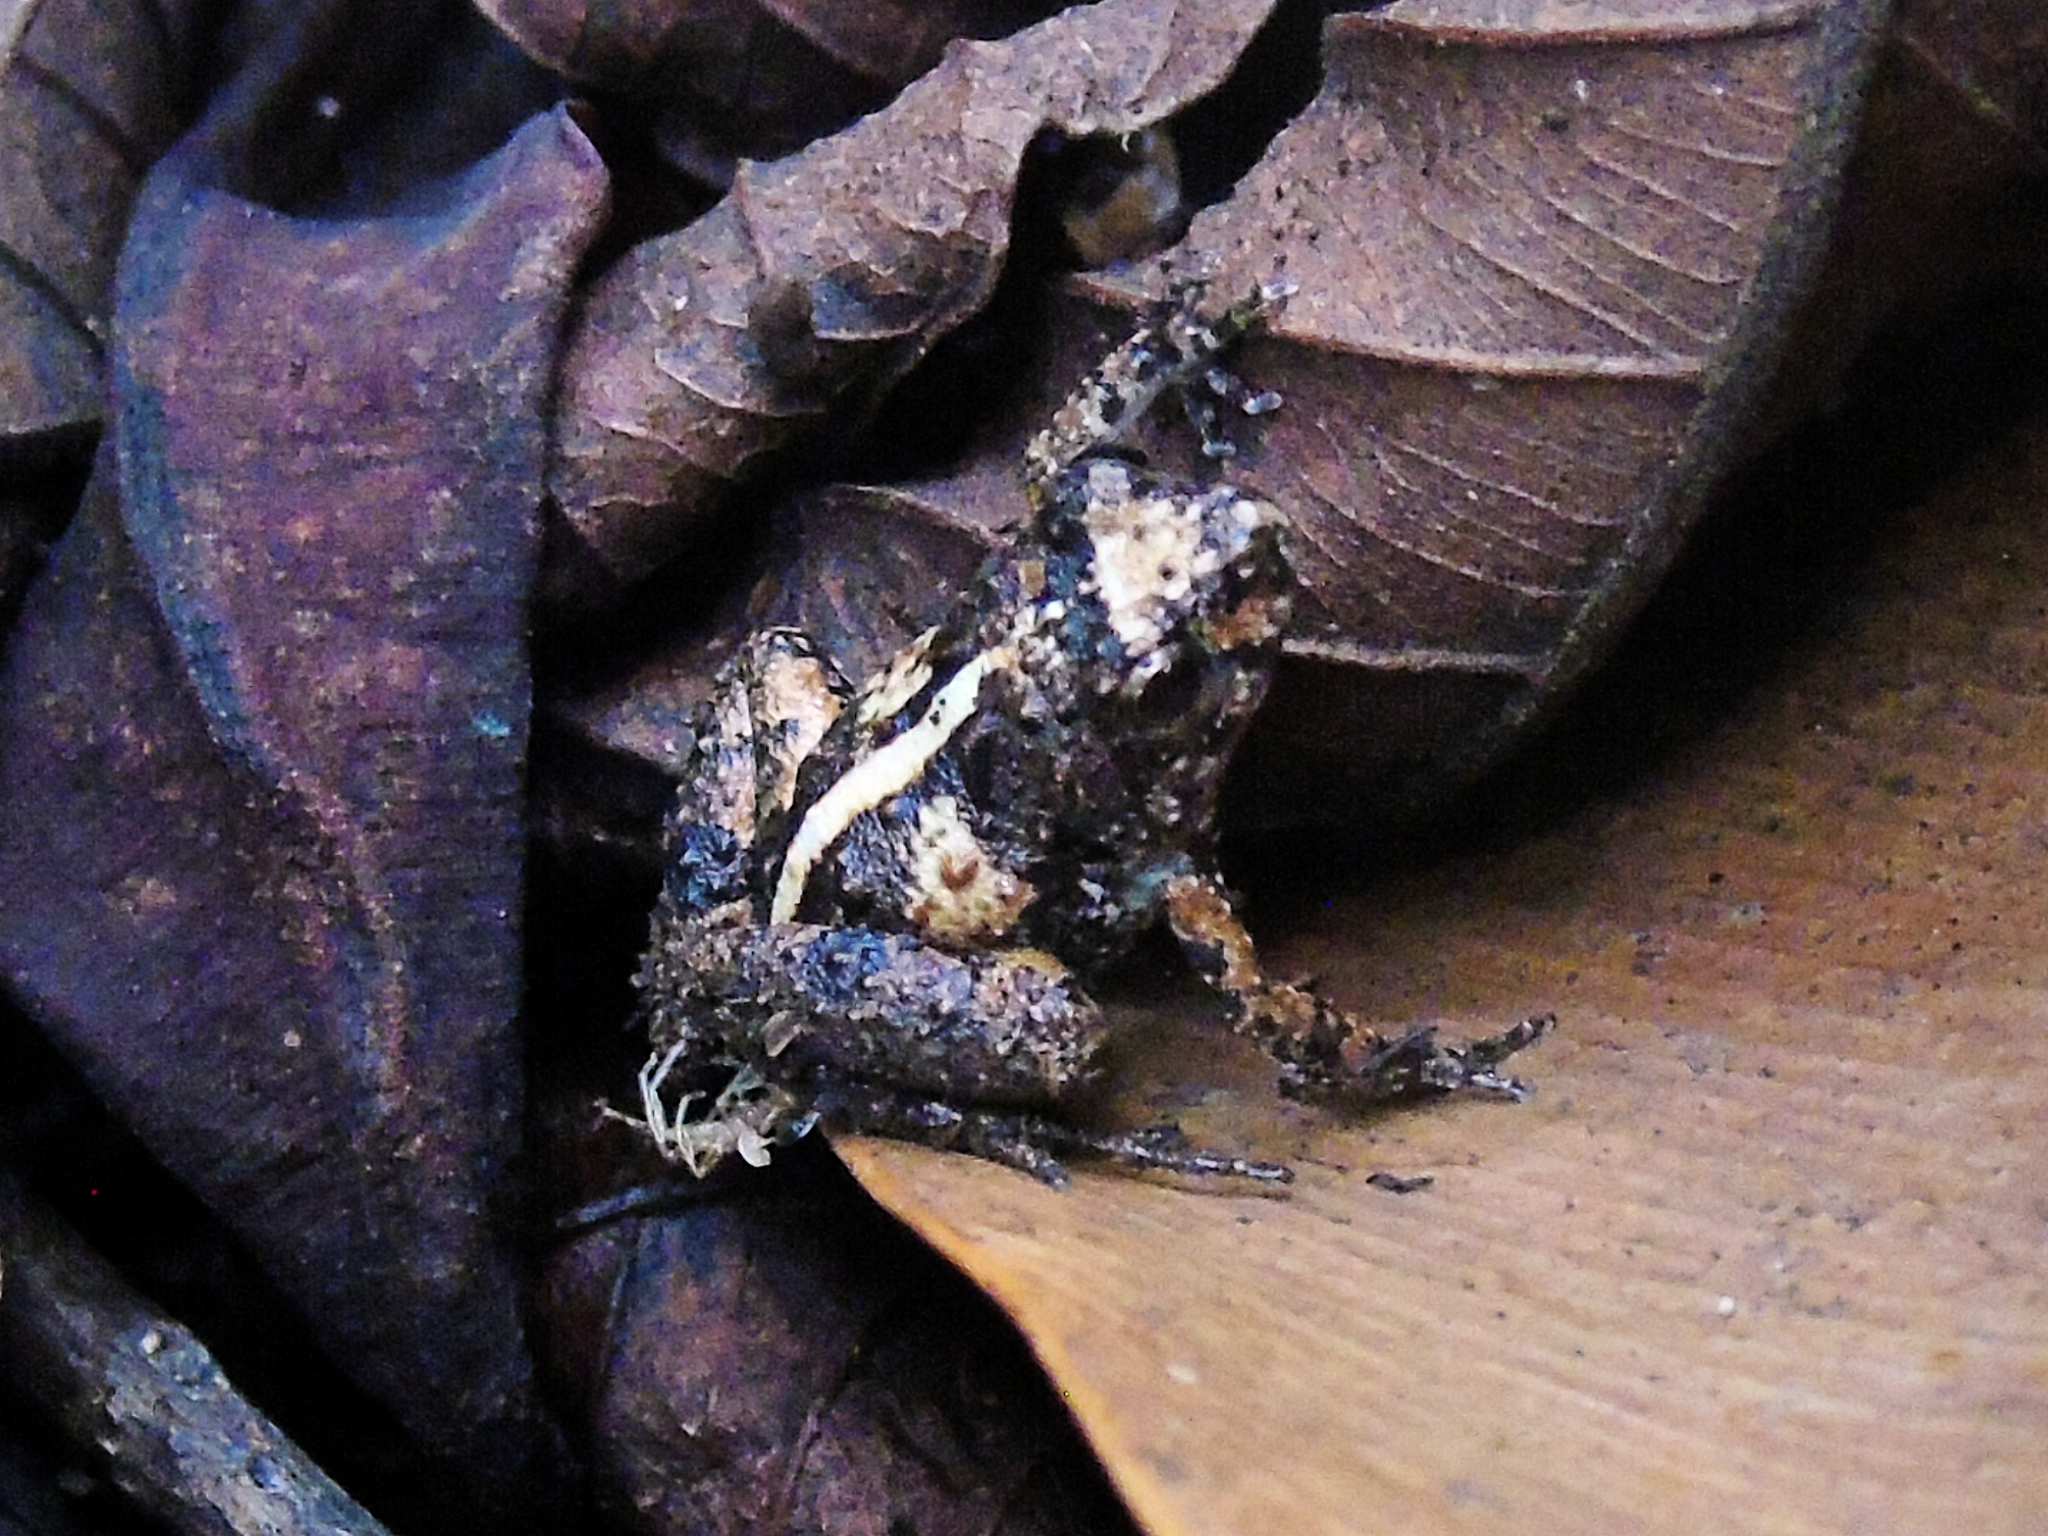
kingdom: Animalia
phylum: Chordata
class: Amphibia
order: Anura
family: Phrynobatrachidae
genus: Phrynobatrachus
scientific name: Phrynobatrachus ungujae
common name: Zanzibar puddle frog
